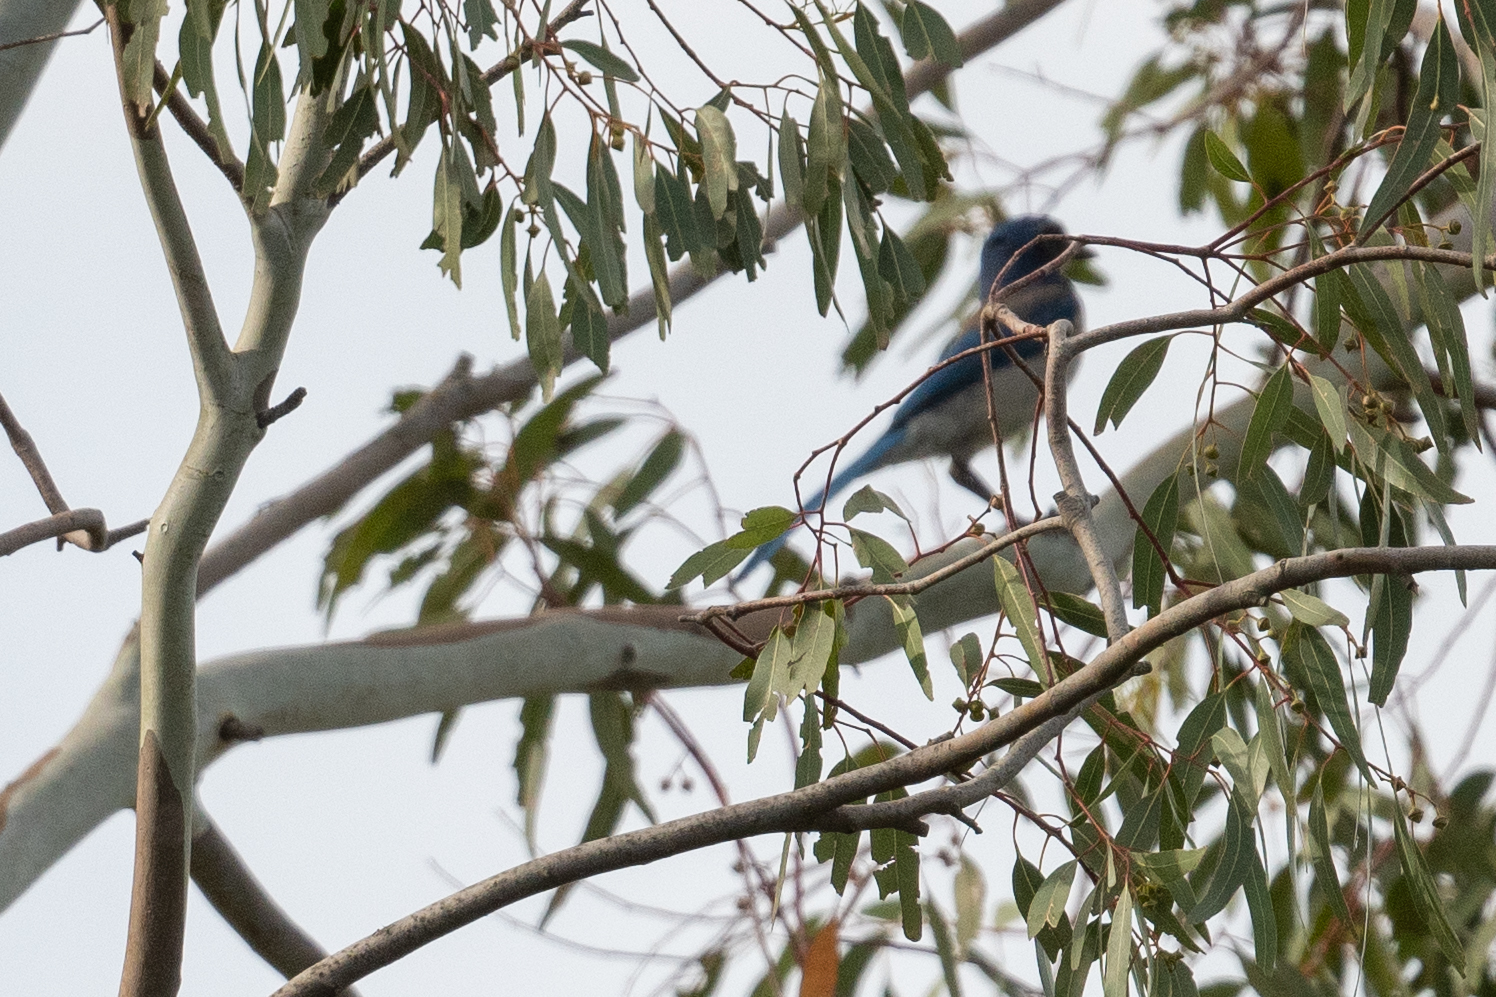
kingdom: Animalia
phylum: Chordata
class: Aves
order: Passeriformes
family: Corvidae
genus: Aphelocoma
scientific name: Aphelocoma californica
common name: California scrub-jay
